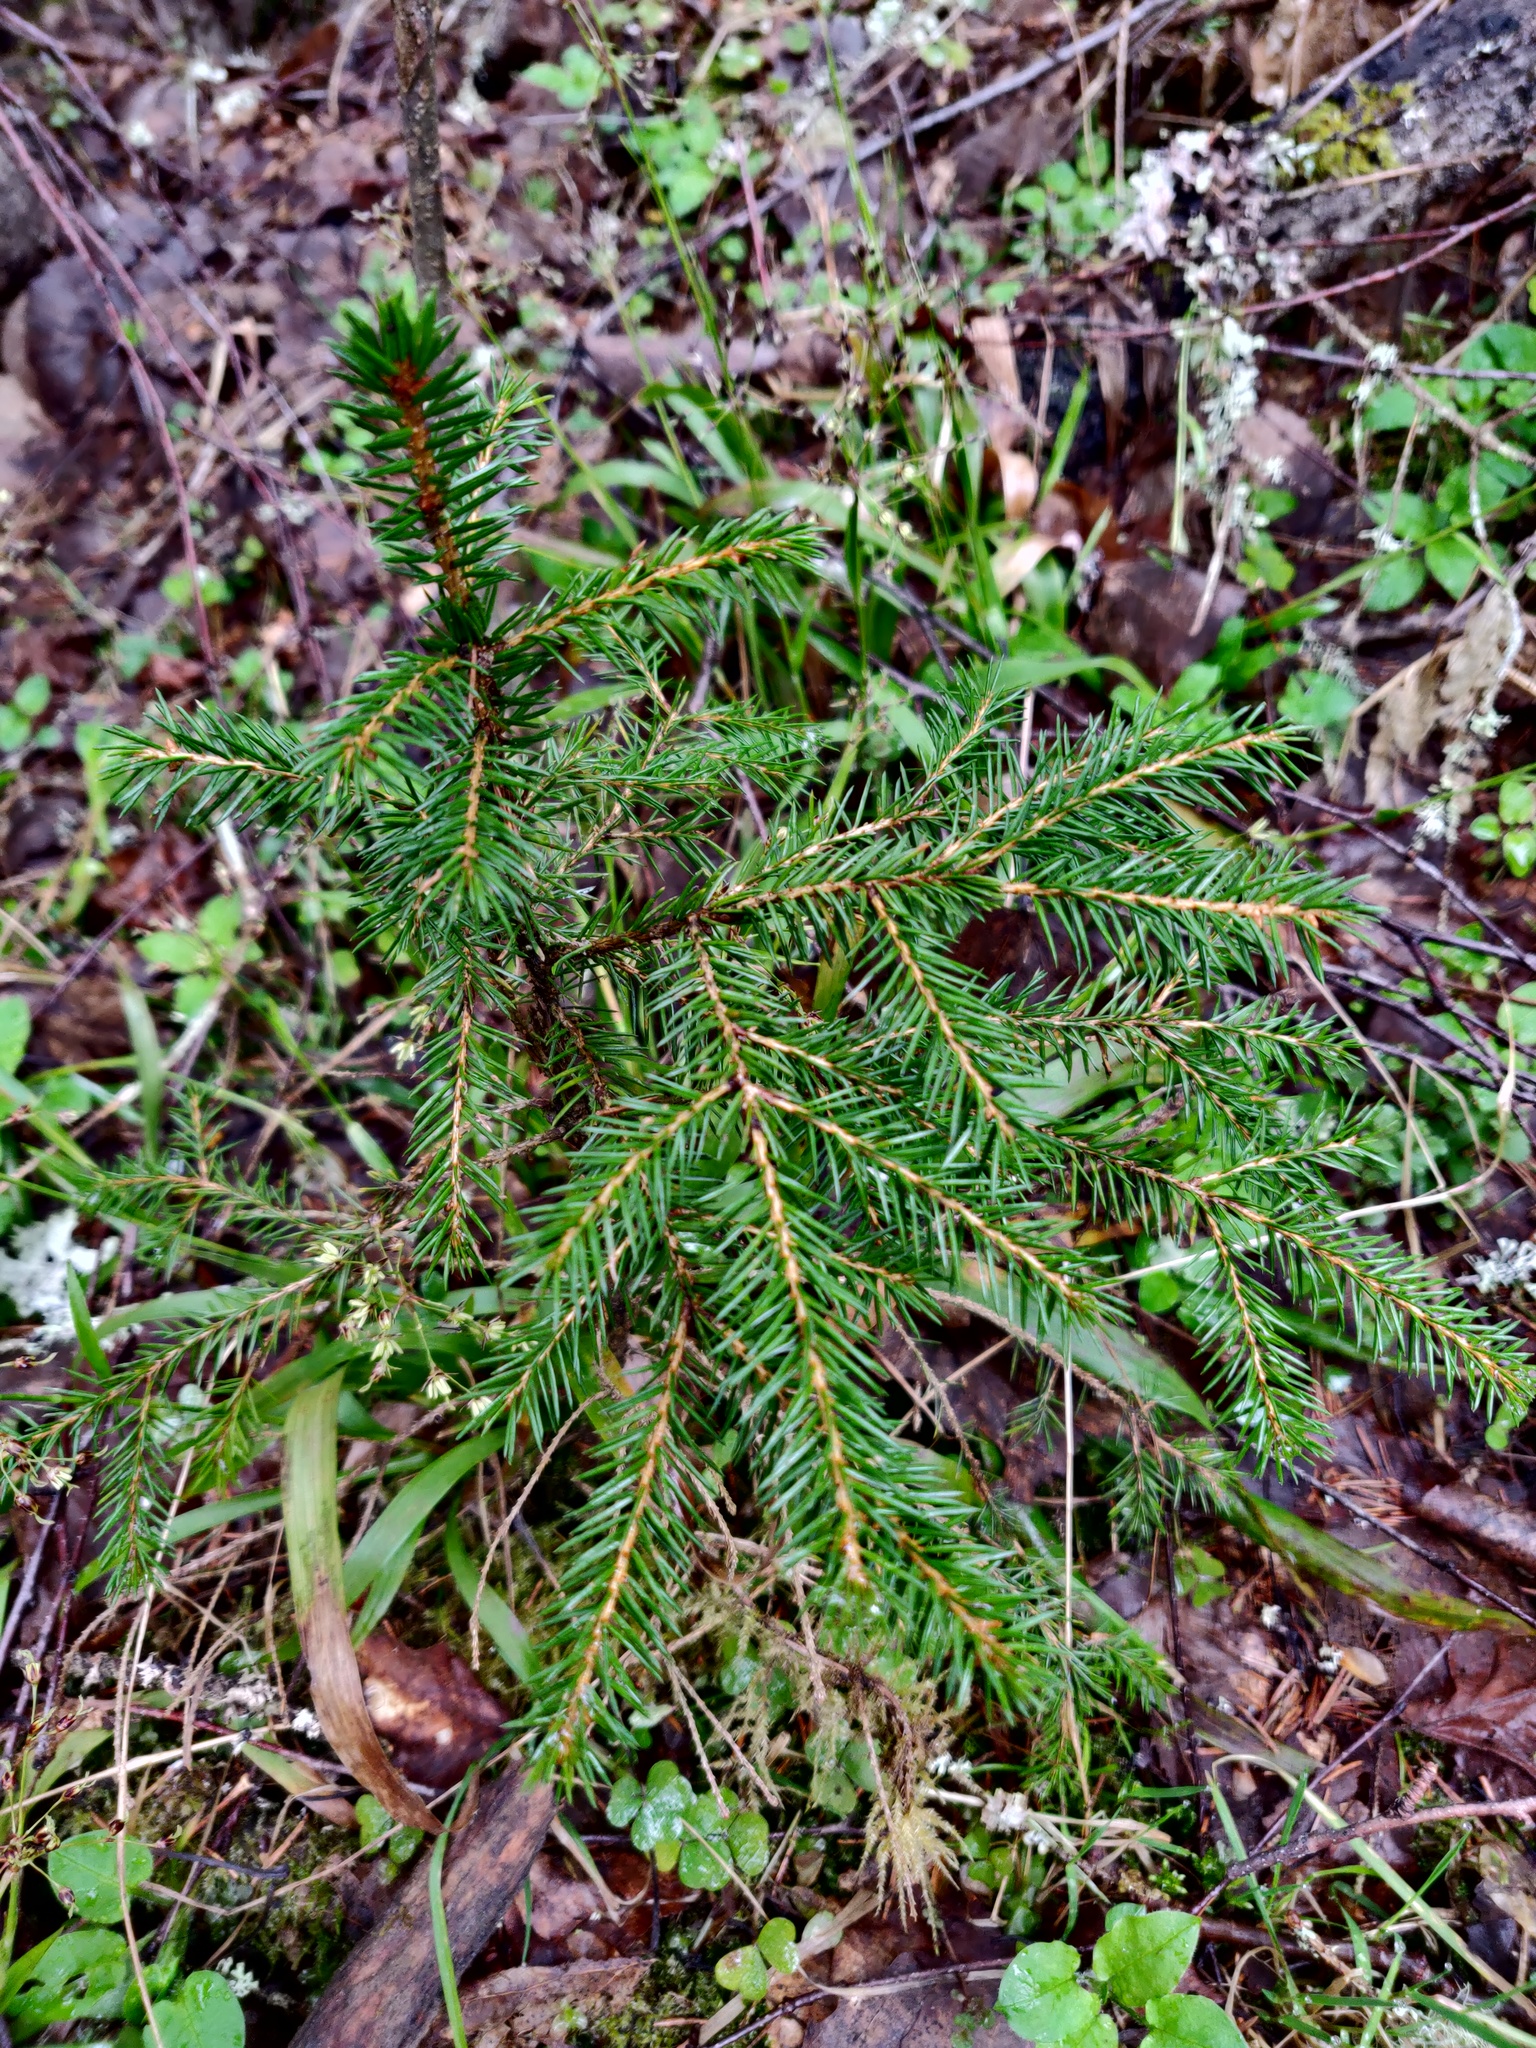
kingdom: Plantae
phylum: Tracheophyta
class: Pinopsida
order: Pinales
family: Pinaceae
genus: Picea
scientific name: Picea abies
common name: Norway spruce
